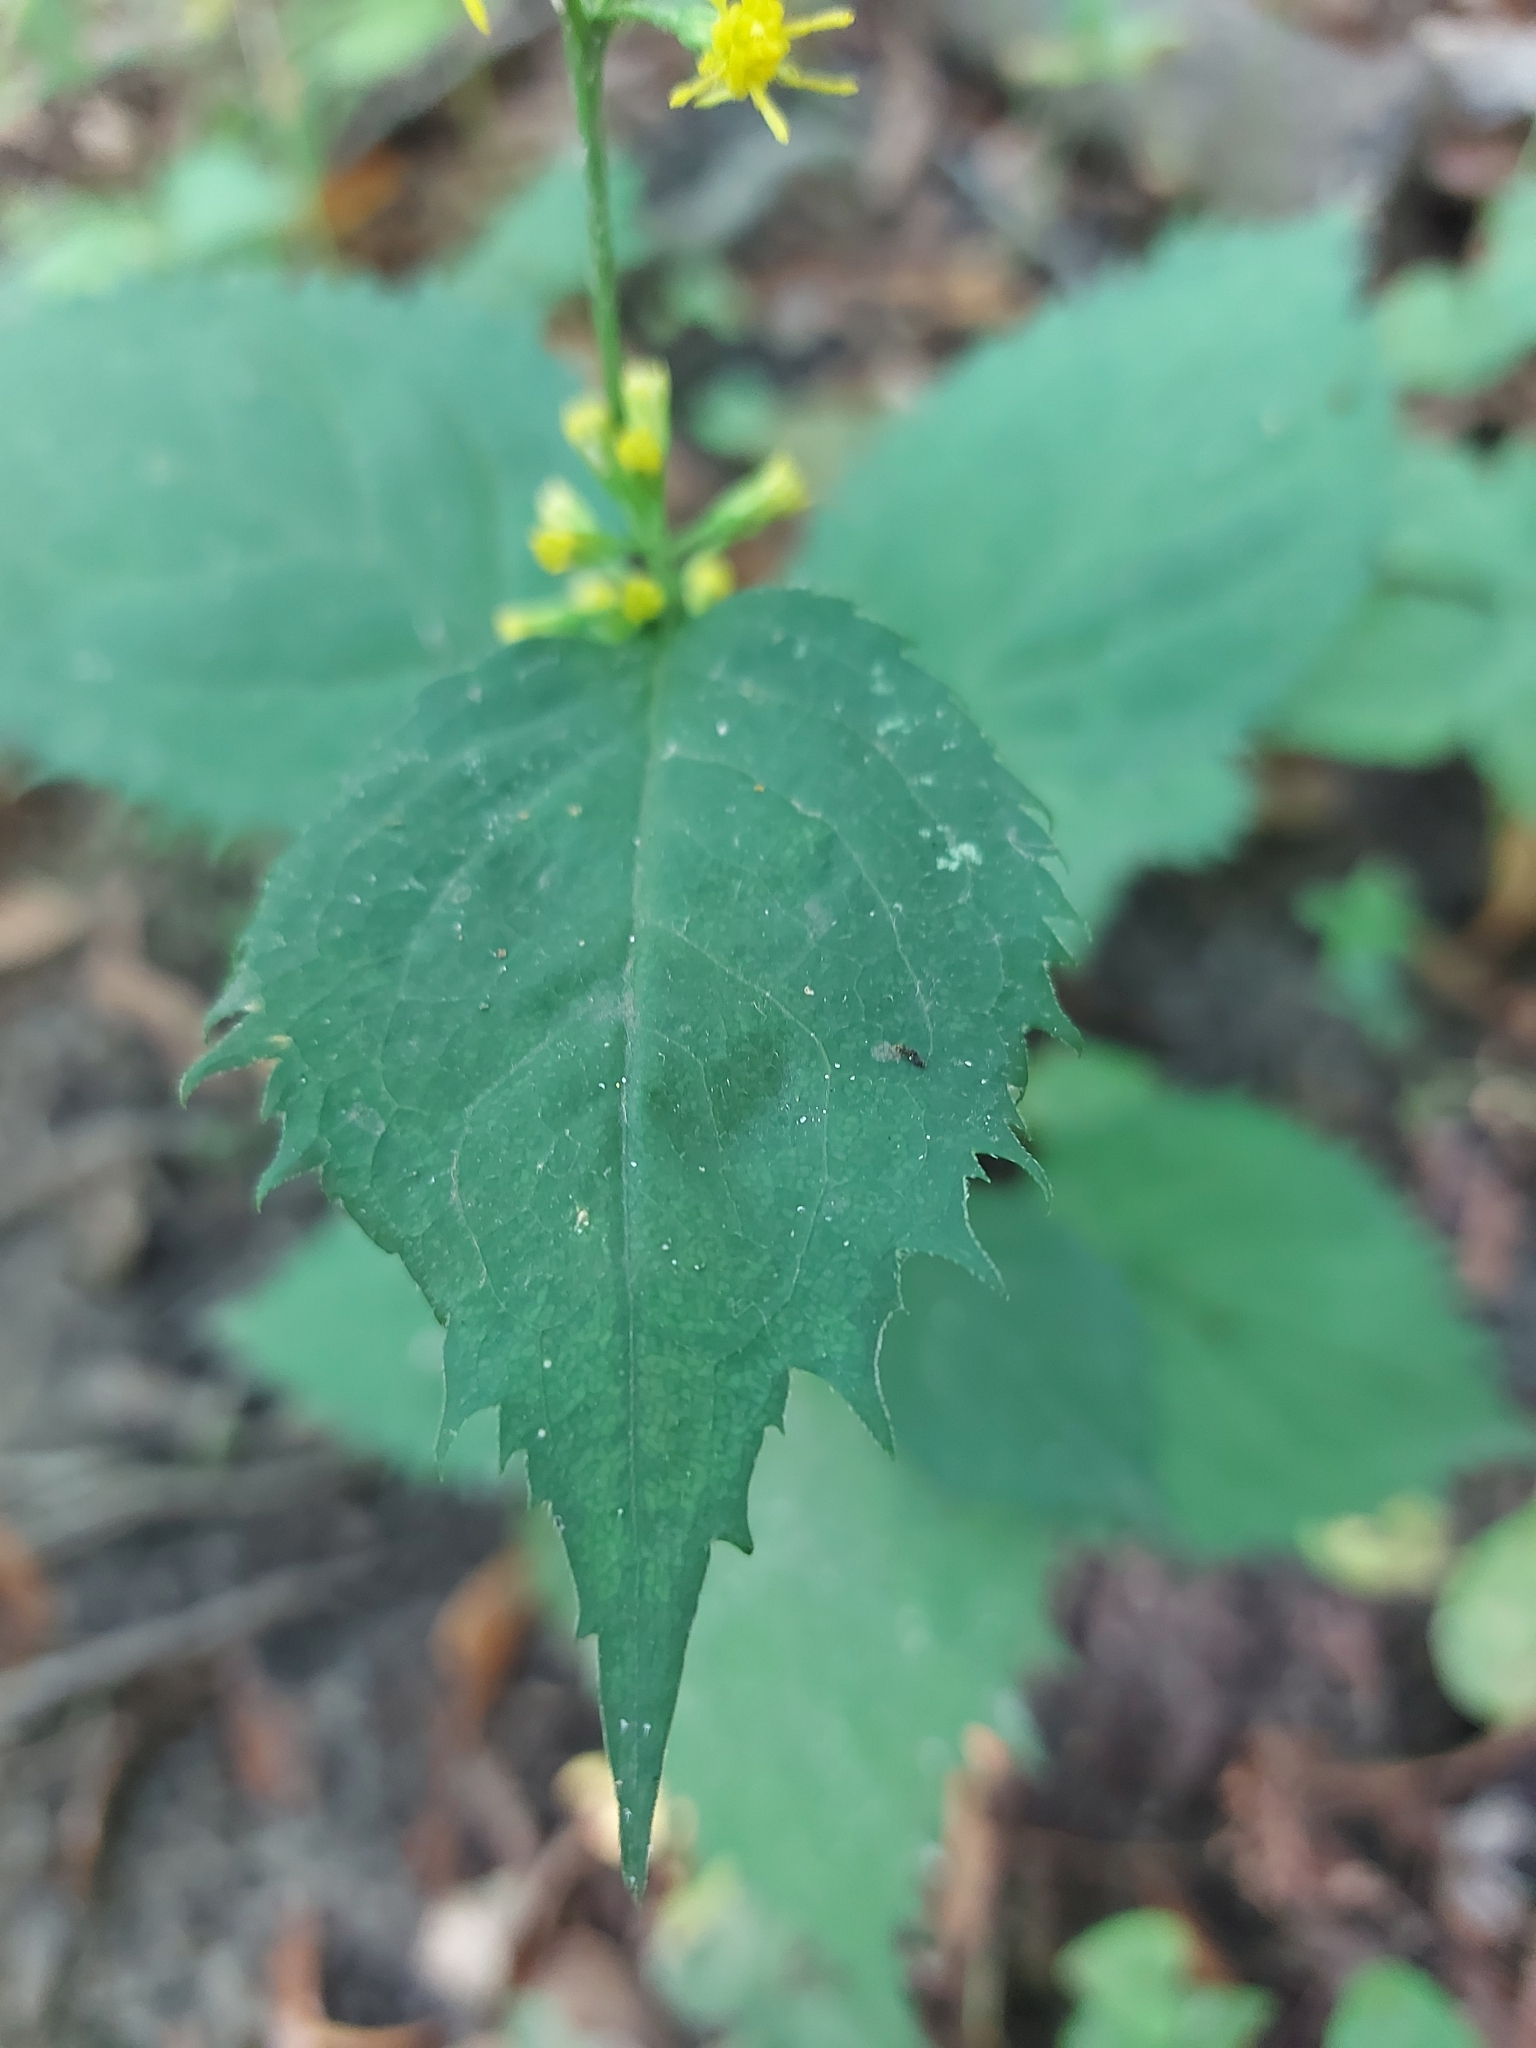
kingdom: Plantae
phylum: Tracheophyta
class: Magnoliopsida
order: Asterales
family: Asteraceae
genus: Solidago
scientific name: Solidago flexicaulis
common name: Zig-zag goldenrod
